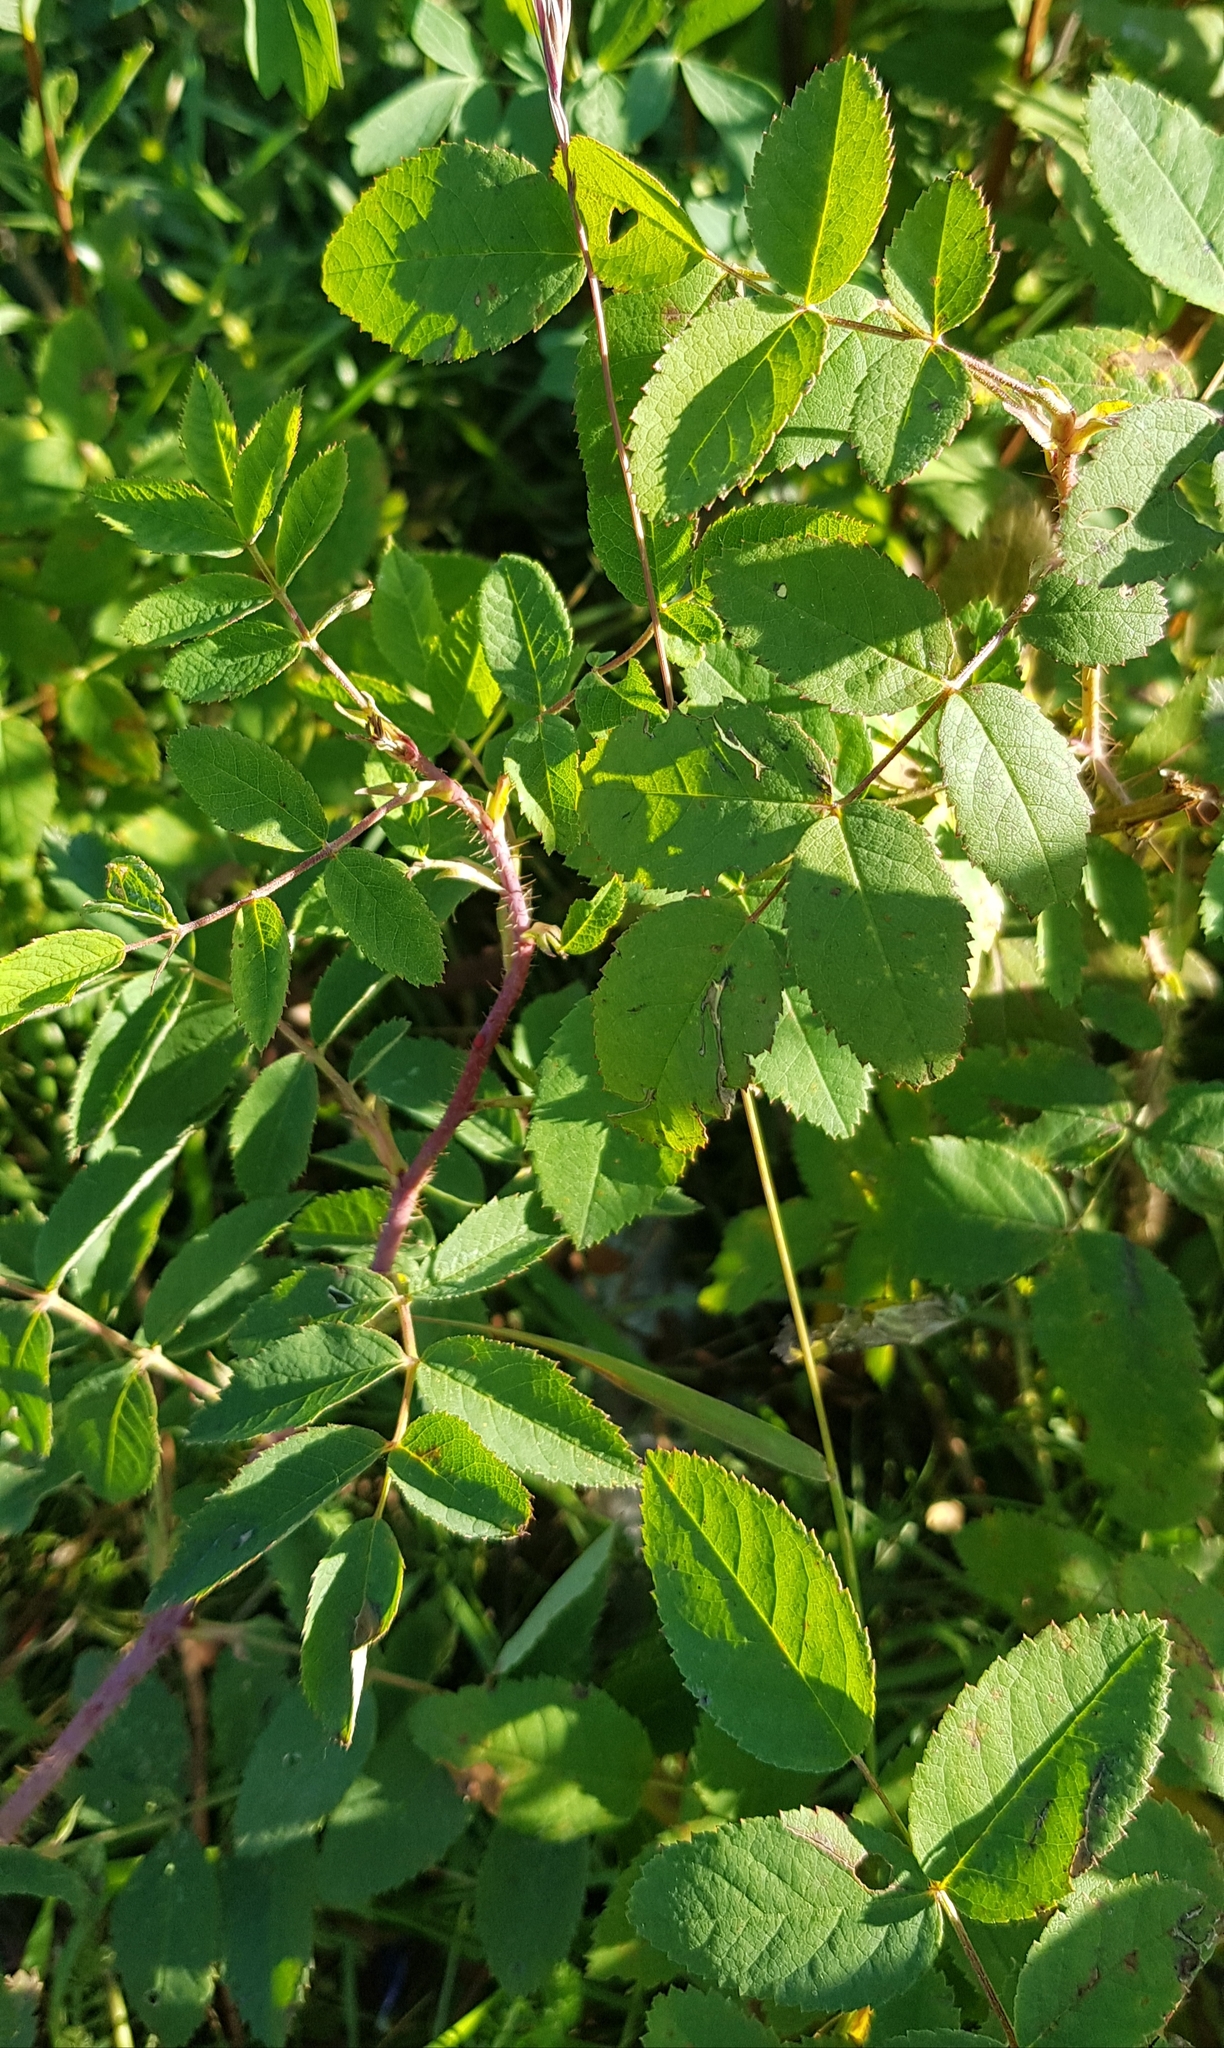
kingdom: Plantae
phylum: Tracheophyta
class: Magnoliopsida
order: Rosales
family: Rosaceae
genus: Rosa
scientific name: Rosa acicularis
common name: Prickly rose
